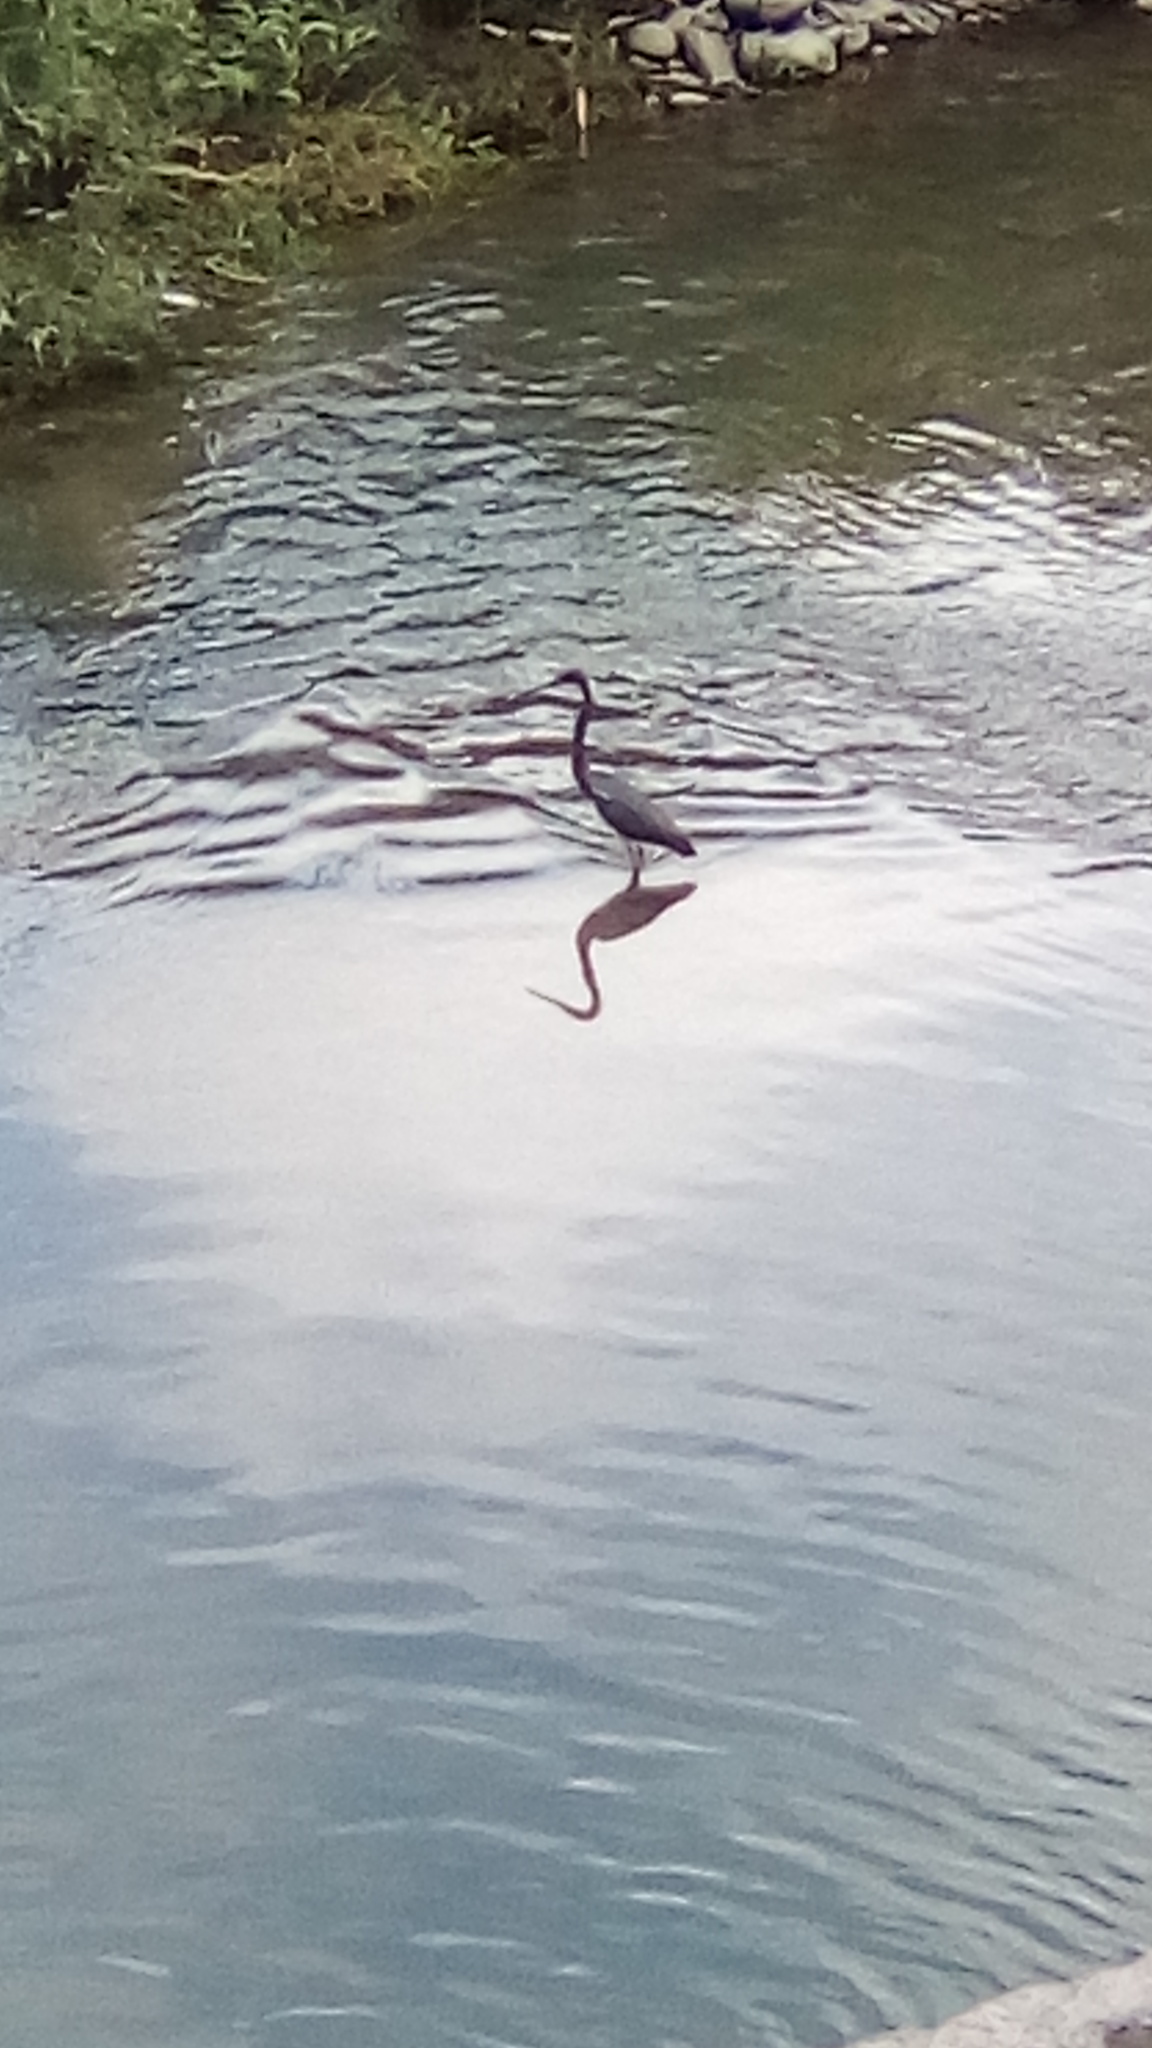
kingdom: Animalia
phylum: Chordata
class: Aves
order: Pelecaniformes
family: Ardeidae
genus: Egretta
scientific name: Egretta tricolor
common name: Tricolored heron
